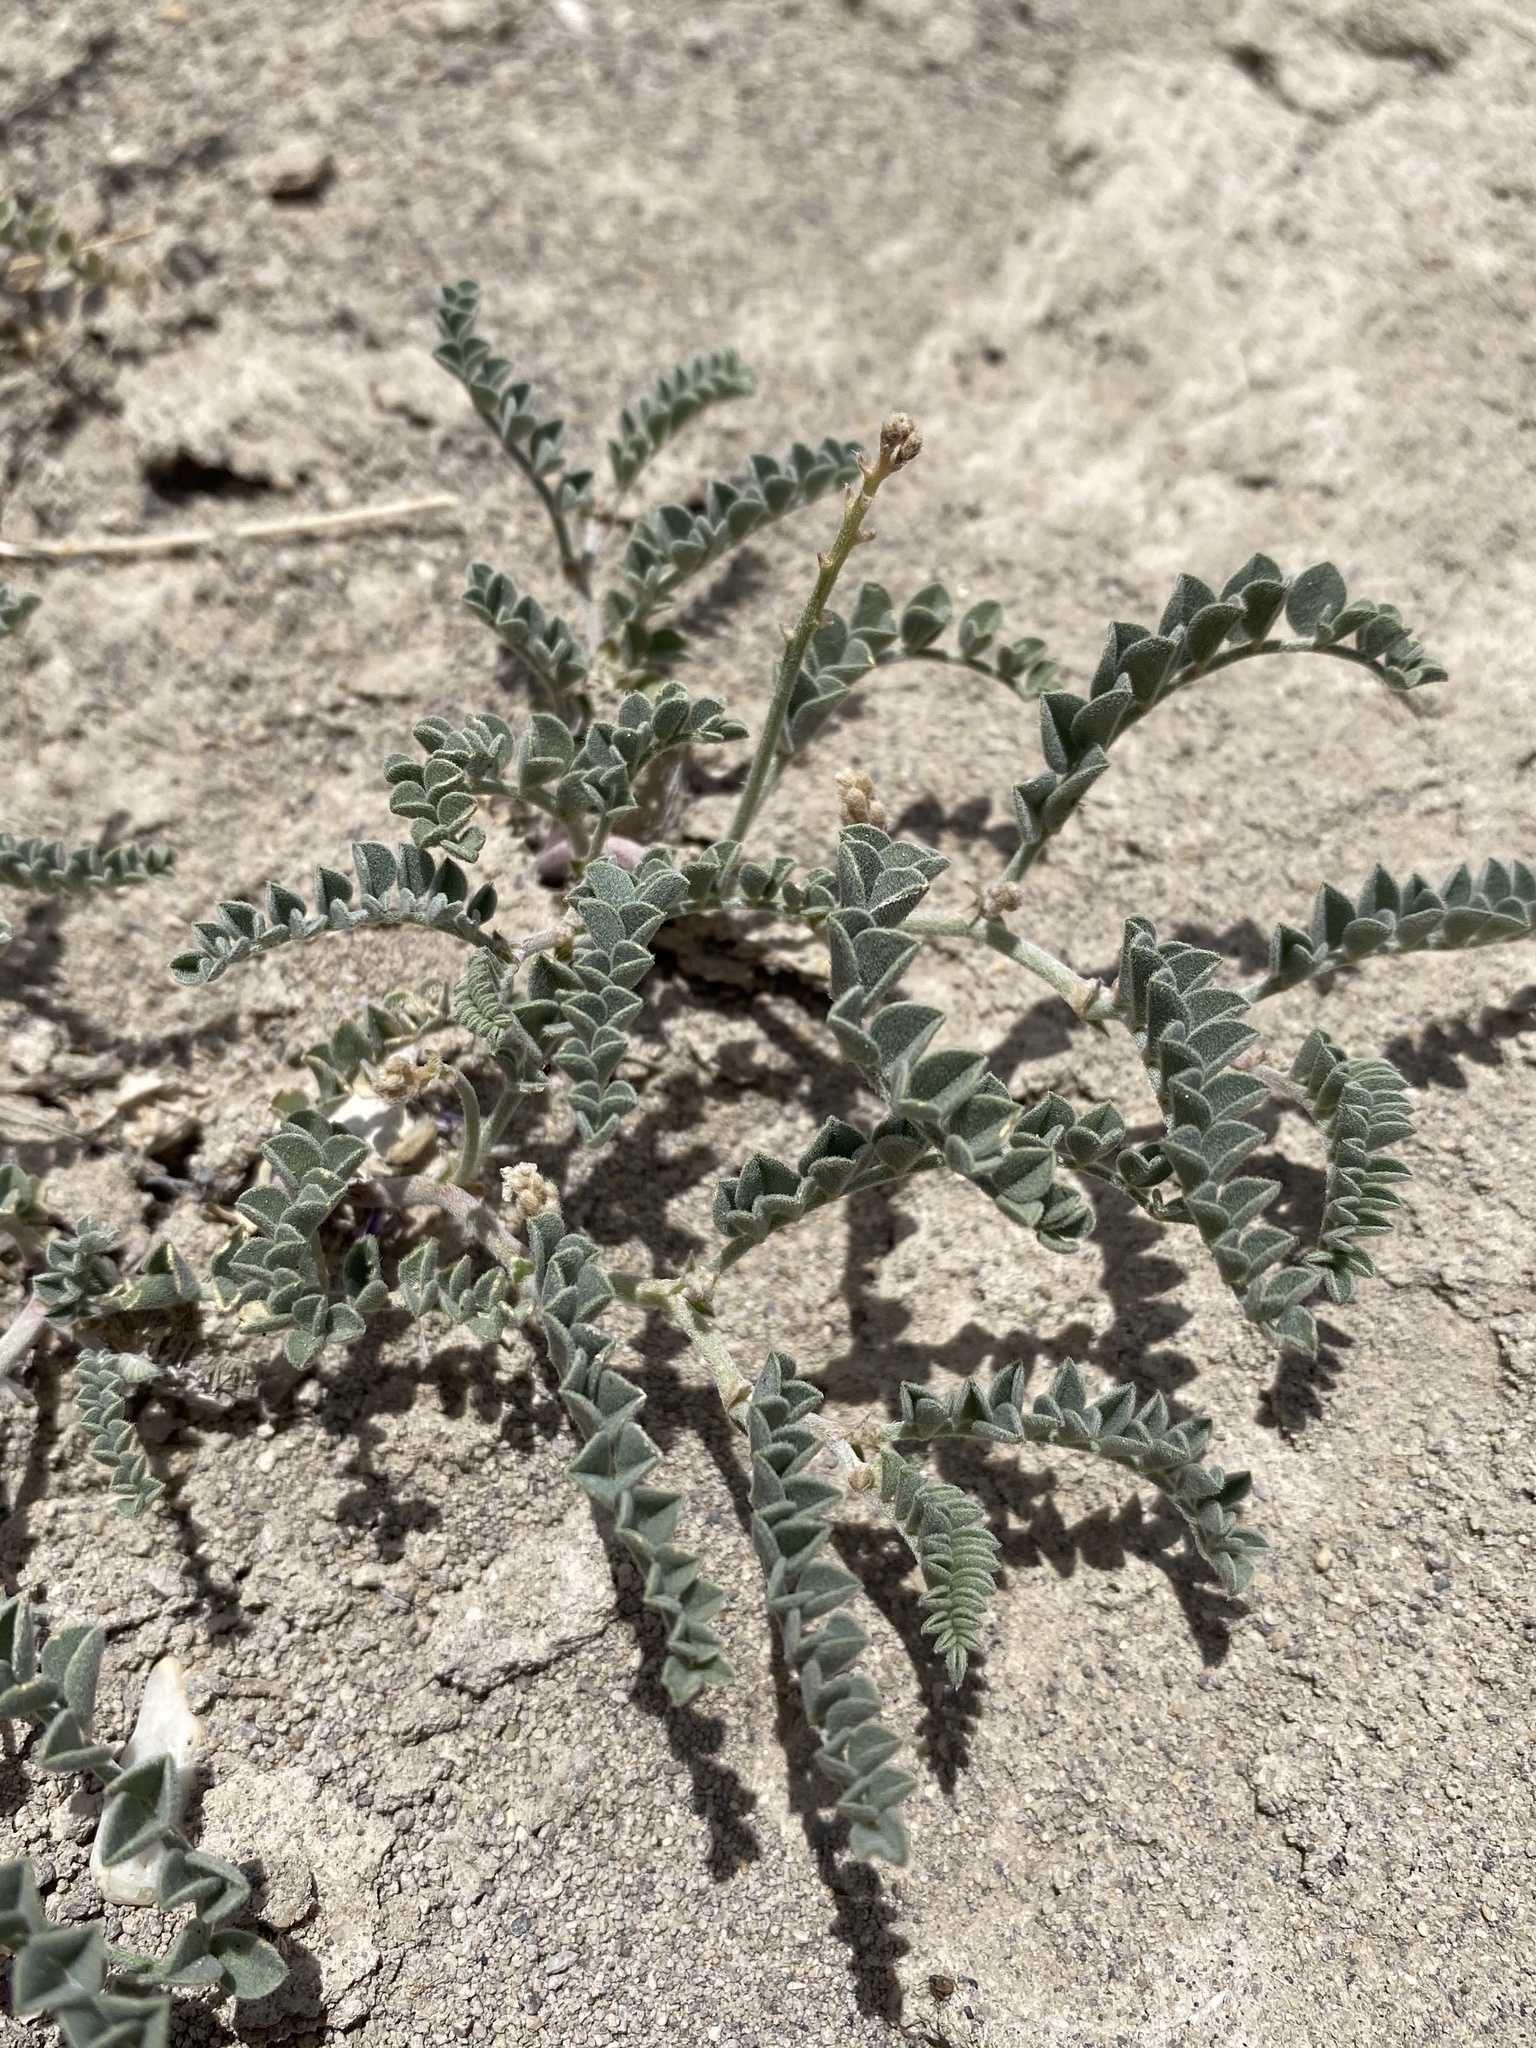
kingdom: Plantae
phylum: Tracheophyta
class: Magnoliopsida
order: Fabales
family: Fabaceae
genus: Astragalus
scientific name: Astragalus camptopus
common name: Bruneau milk-vetch
